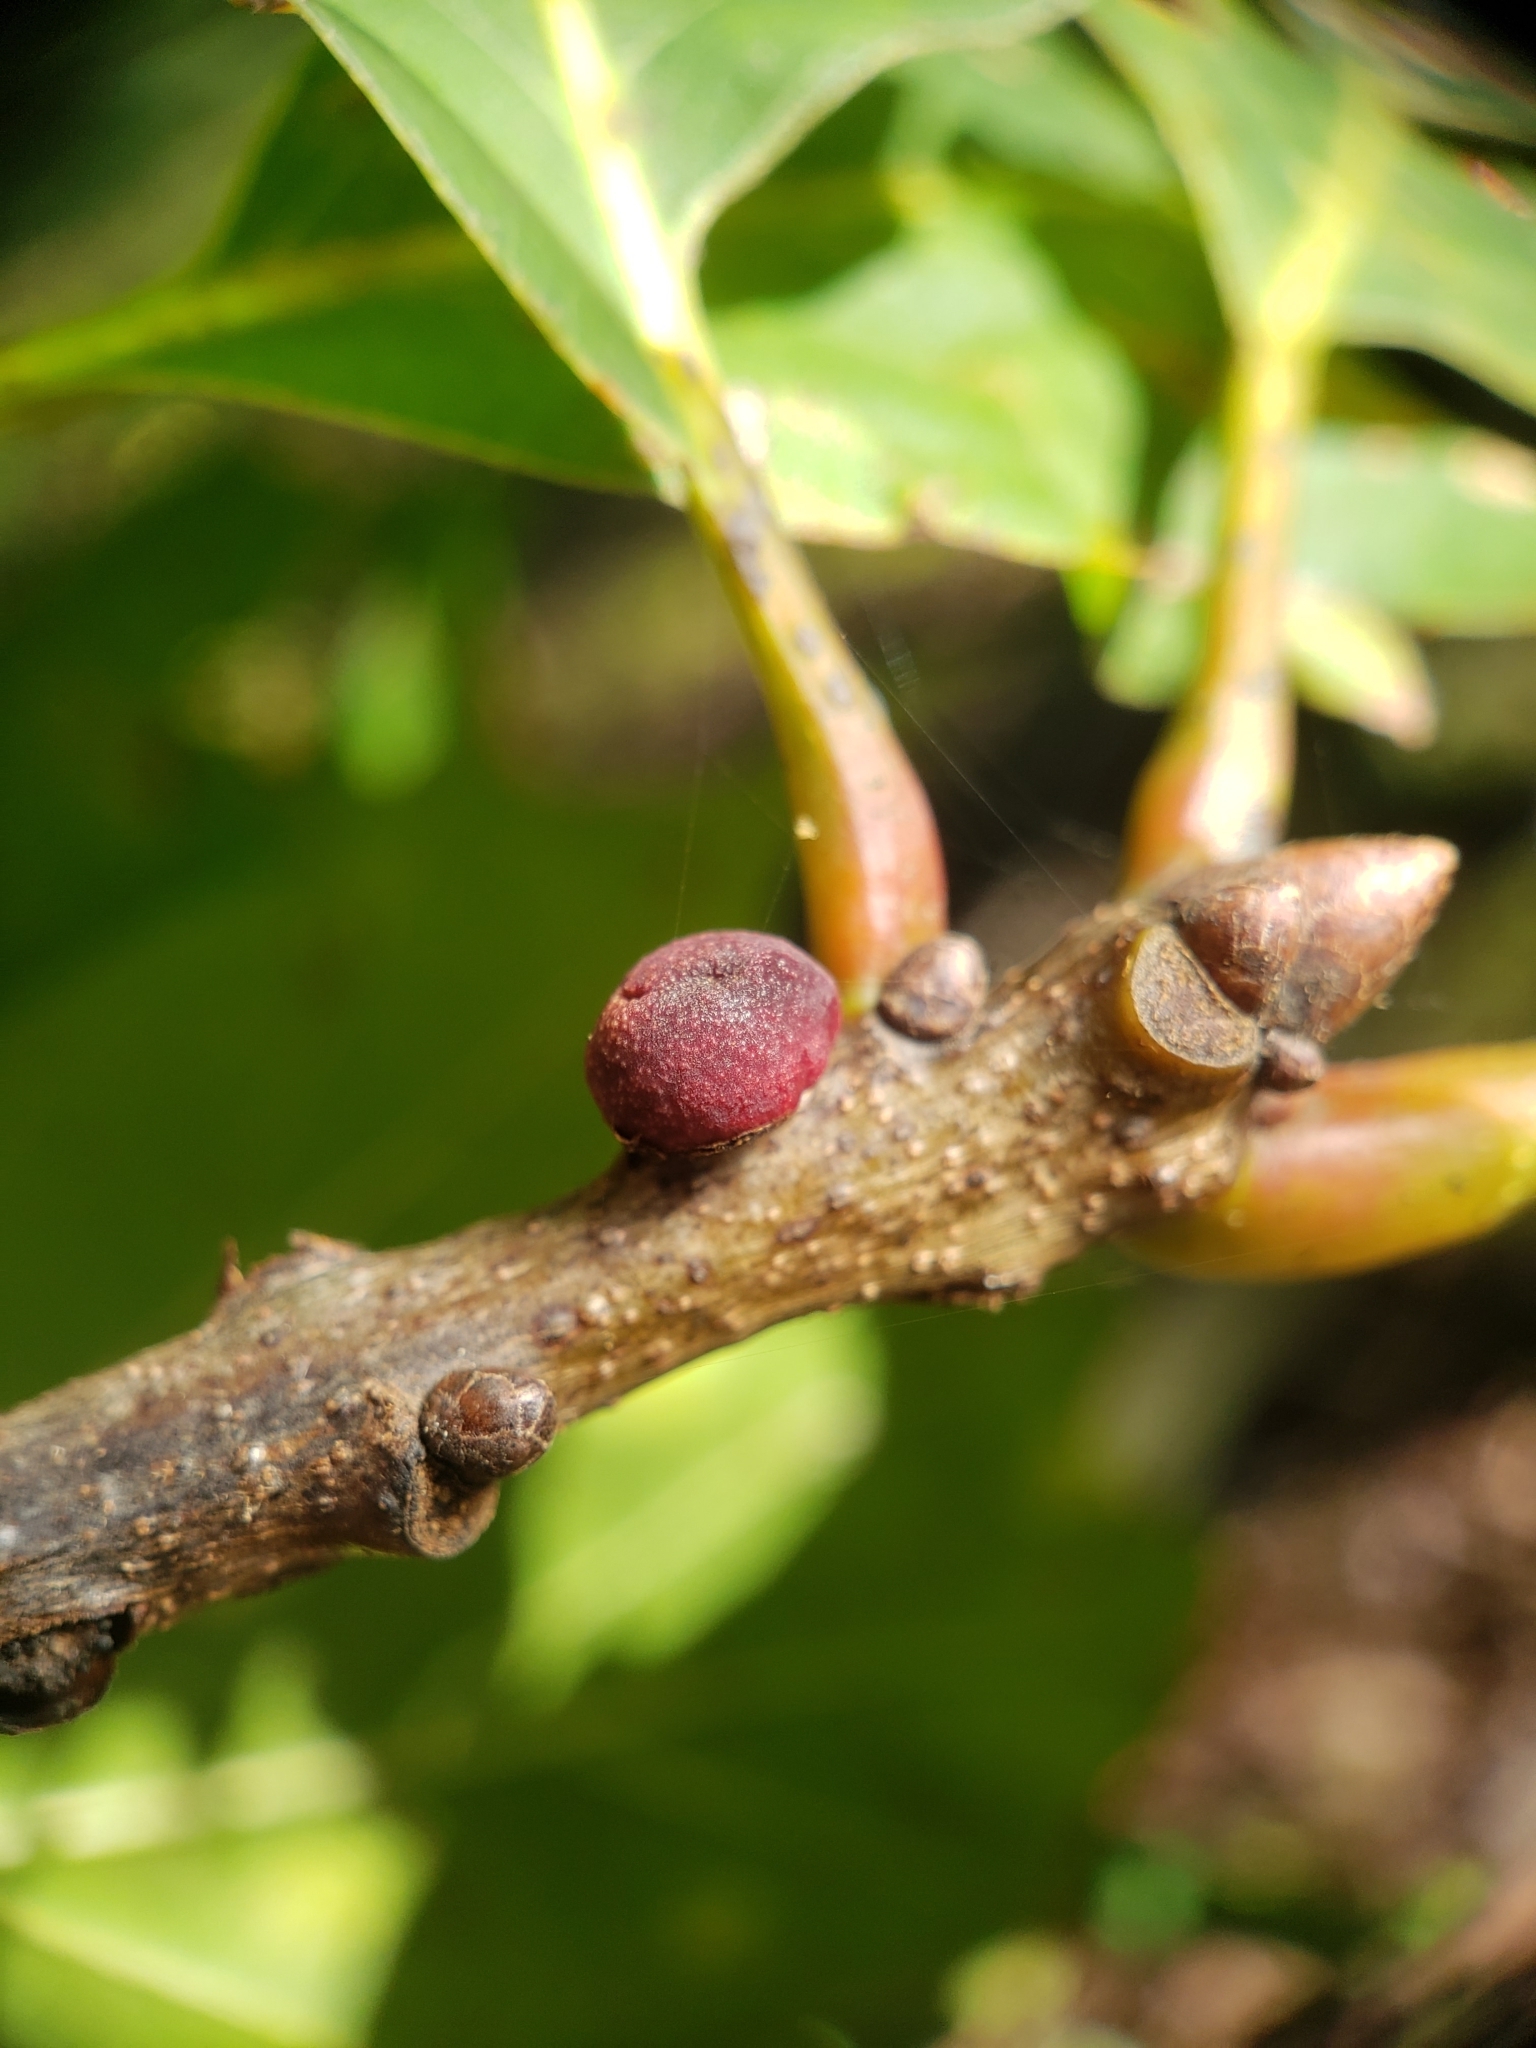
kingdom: Animalia
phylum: Arthropoda
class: Insecta
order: Hymenoptera
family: Cynipidae
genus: Kokkocynips
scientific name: Kokkocynips imbricariae
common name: Banded bullet gall wasp
